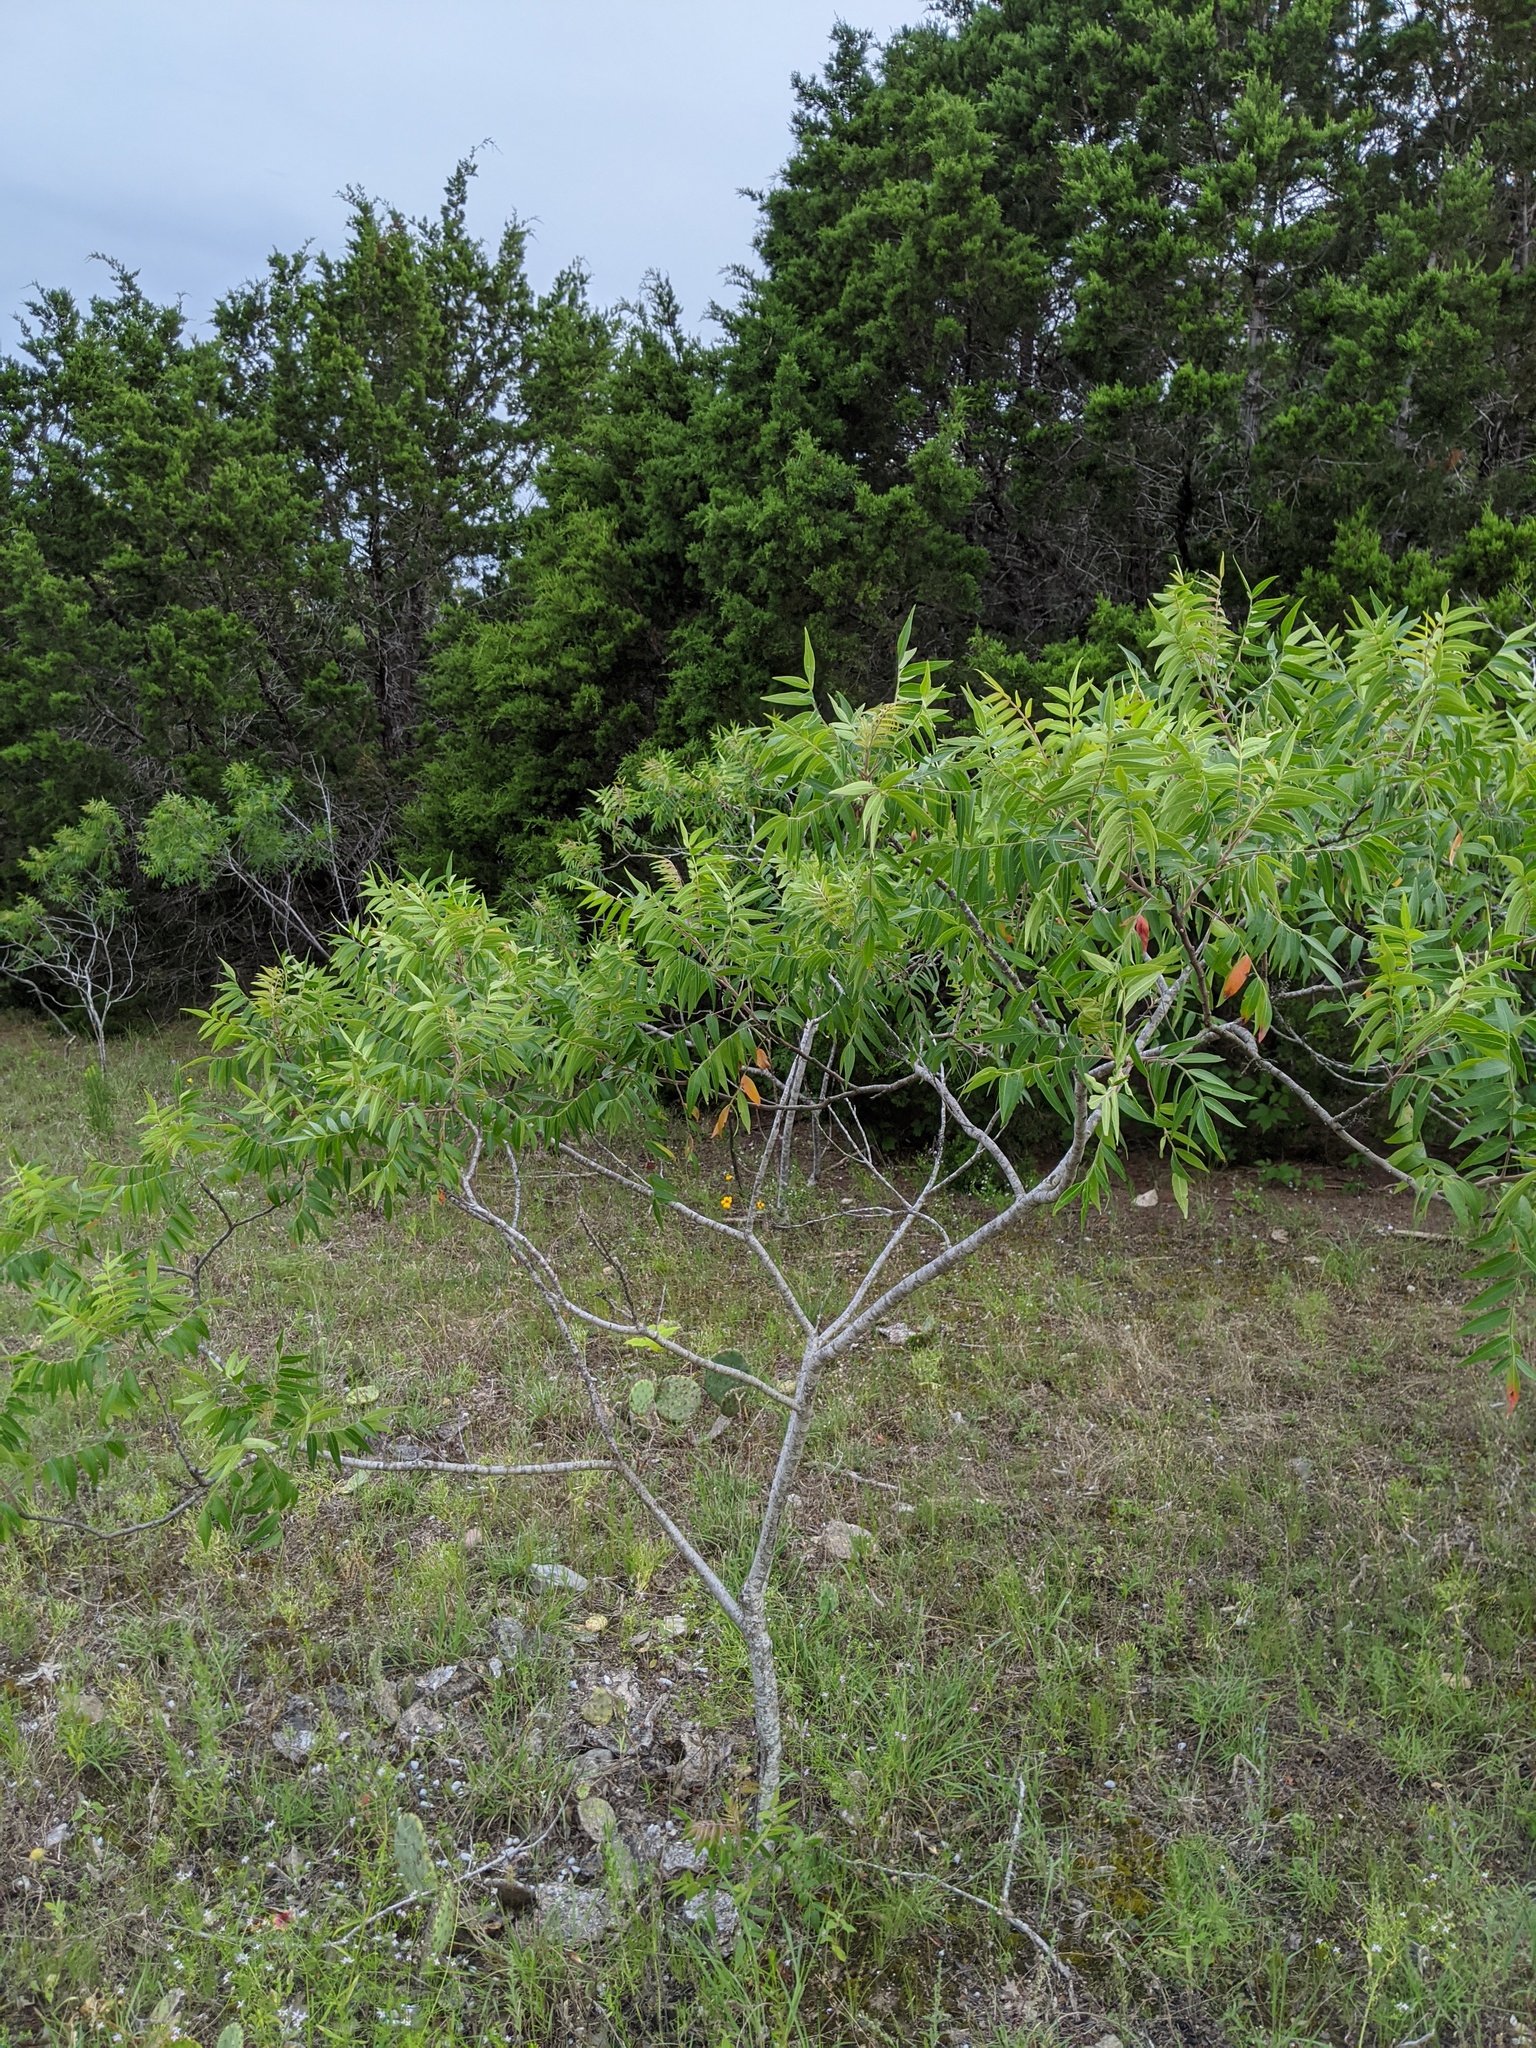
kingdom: Plantae
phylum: Tracheophyta
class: Magnoliopsida
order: Sapindales
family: Anacardiaceae
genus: Rhus
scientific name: Rhus lanceolata
